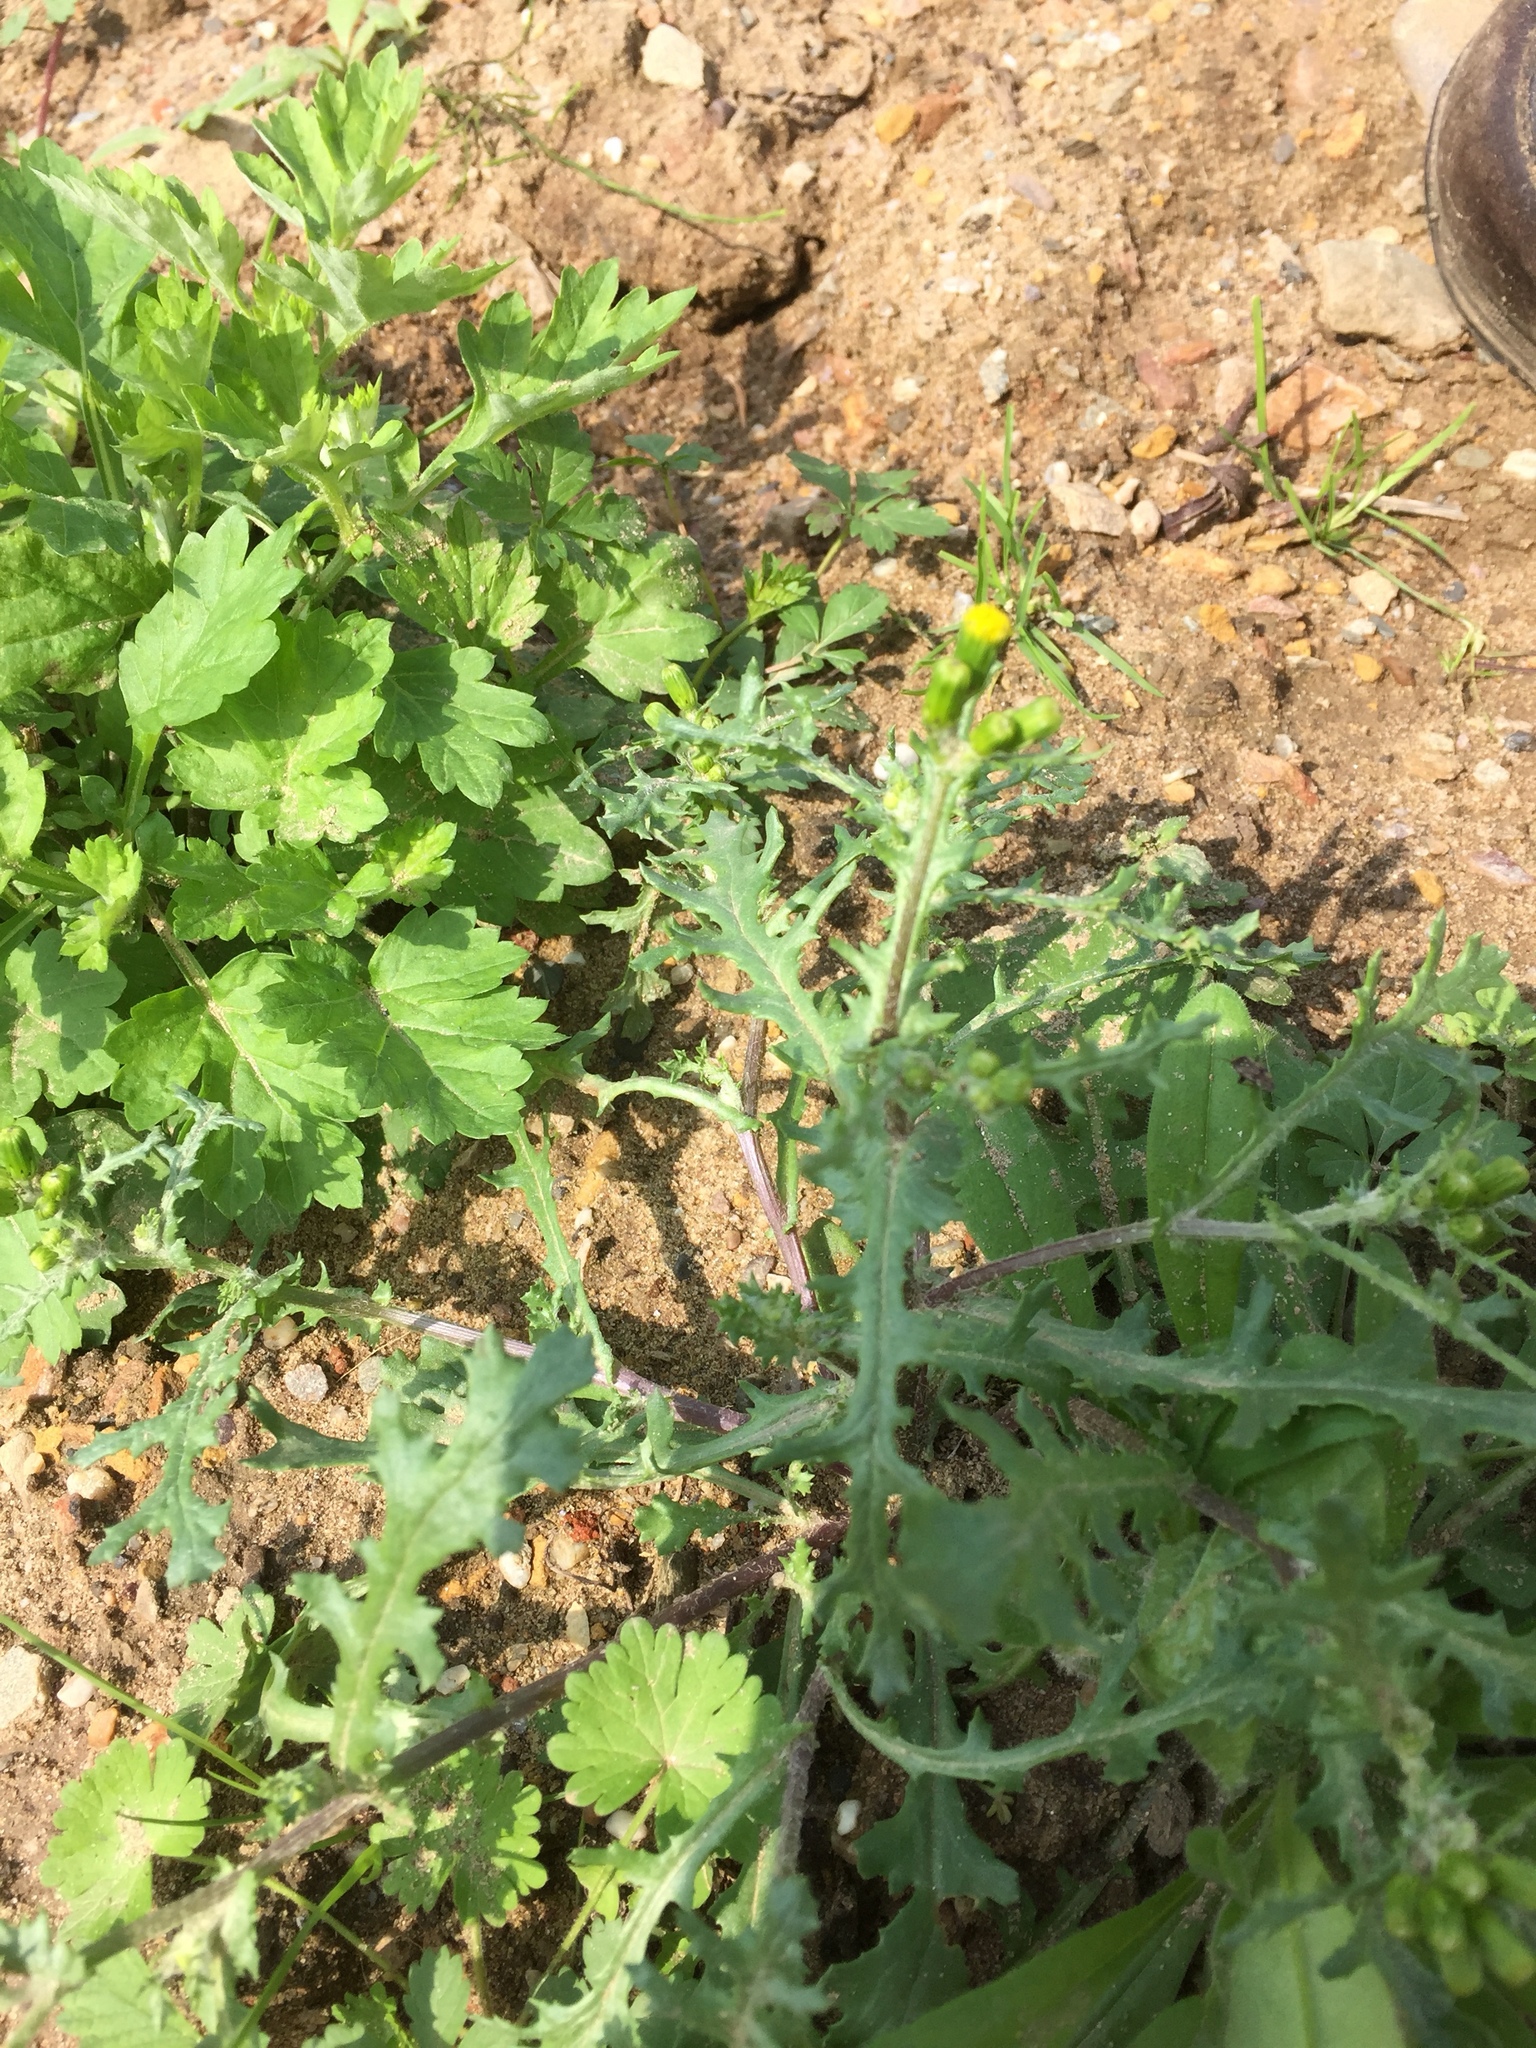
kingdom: Plantae
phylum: Tracheophyta
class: Magnoliopsida
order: Asterales
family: Asteraceae
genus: Senecio
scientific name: Senecio vulgaris
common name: Old-man-in-the-spring
